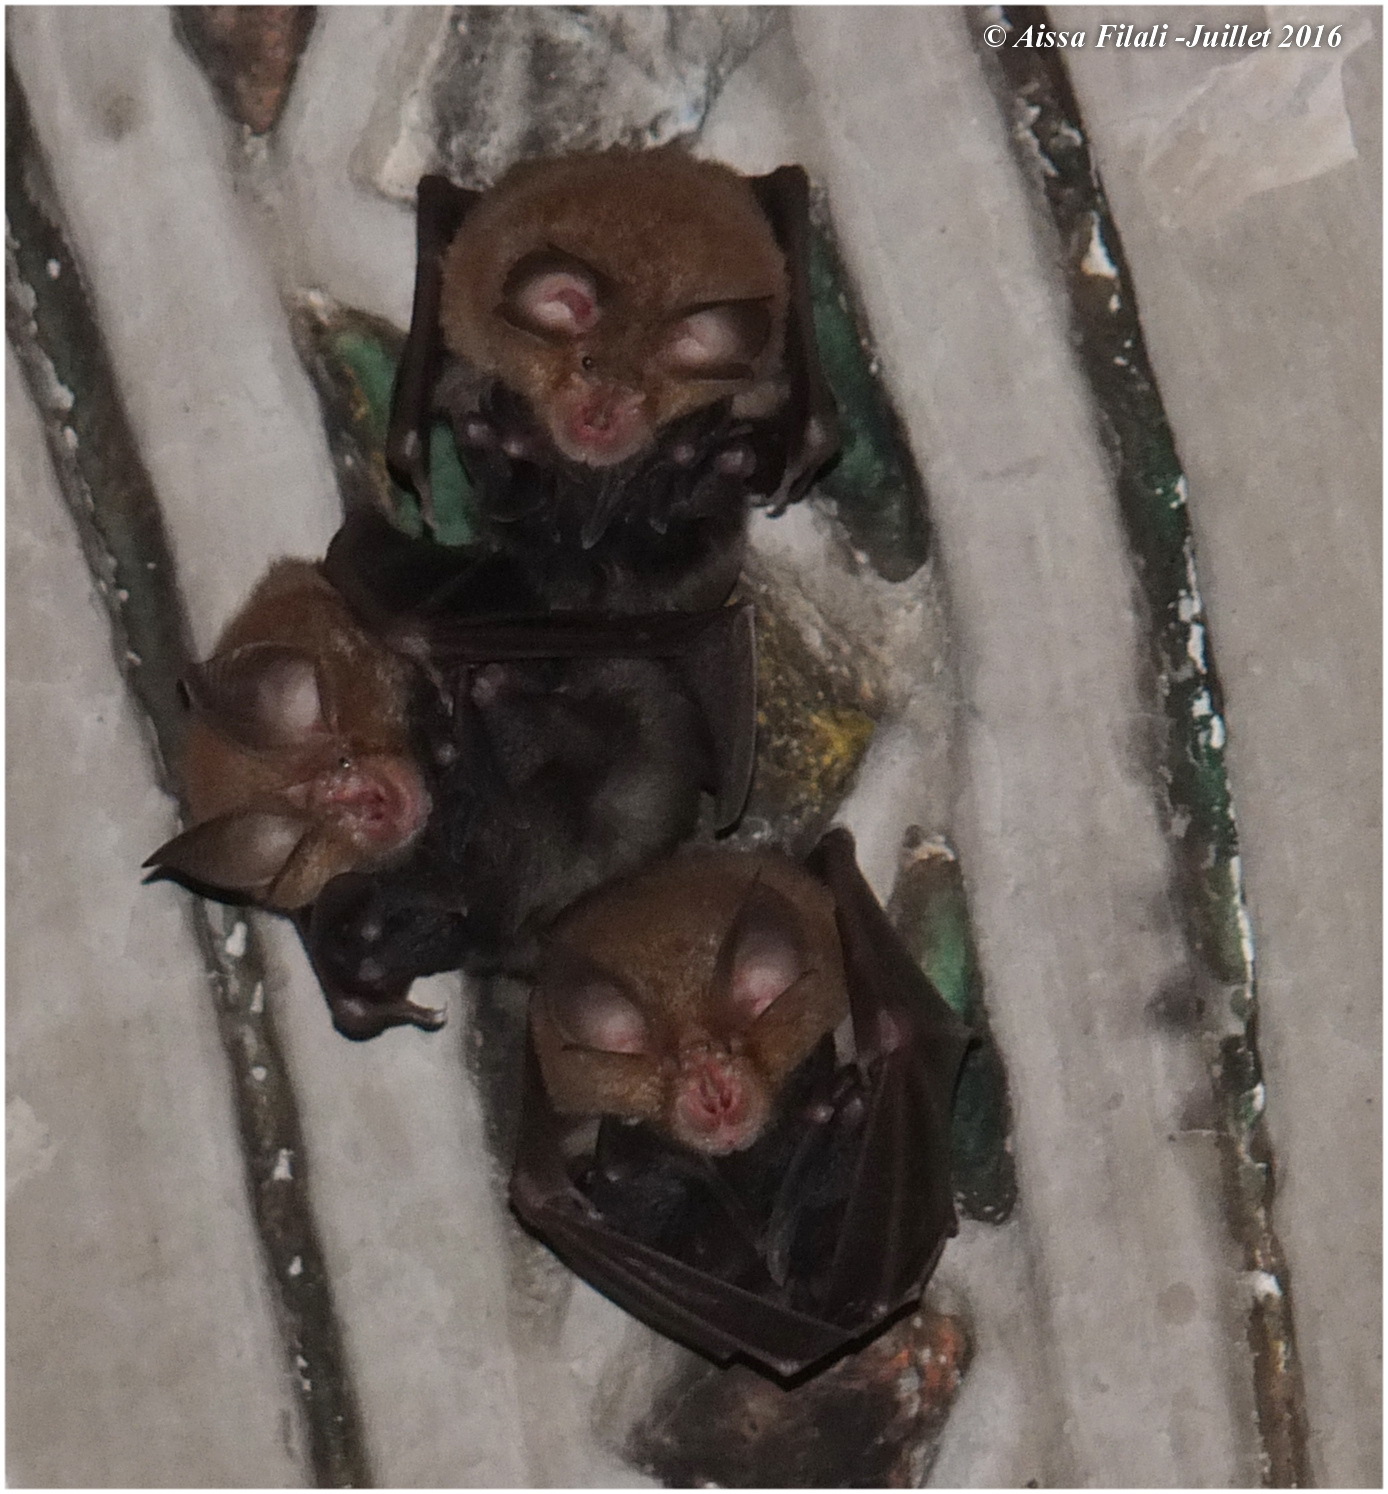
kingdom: Animalia
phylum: Chordata
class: Mammalia
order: Chiroptera
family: Rhinolophidae
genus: Rhinolophus
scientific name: Rhinolophus hipposideros
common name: Lesser horseshoe bat
